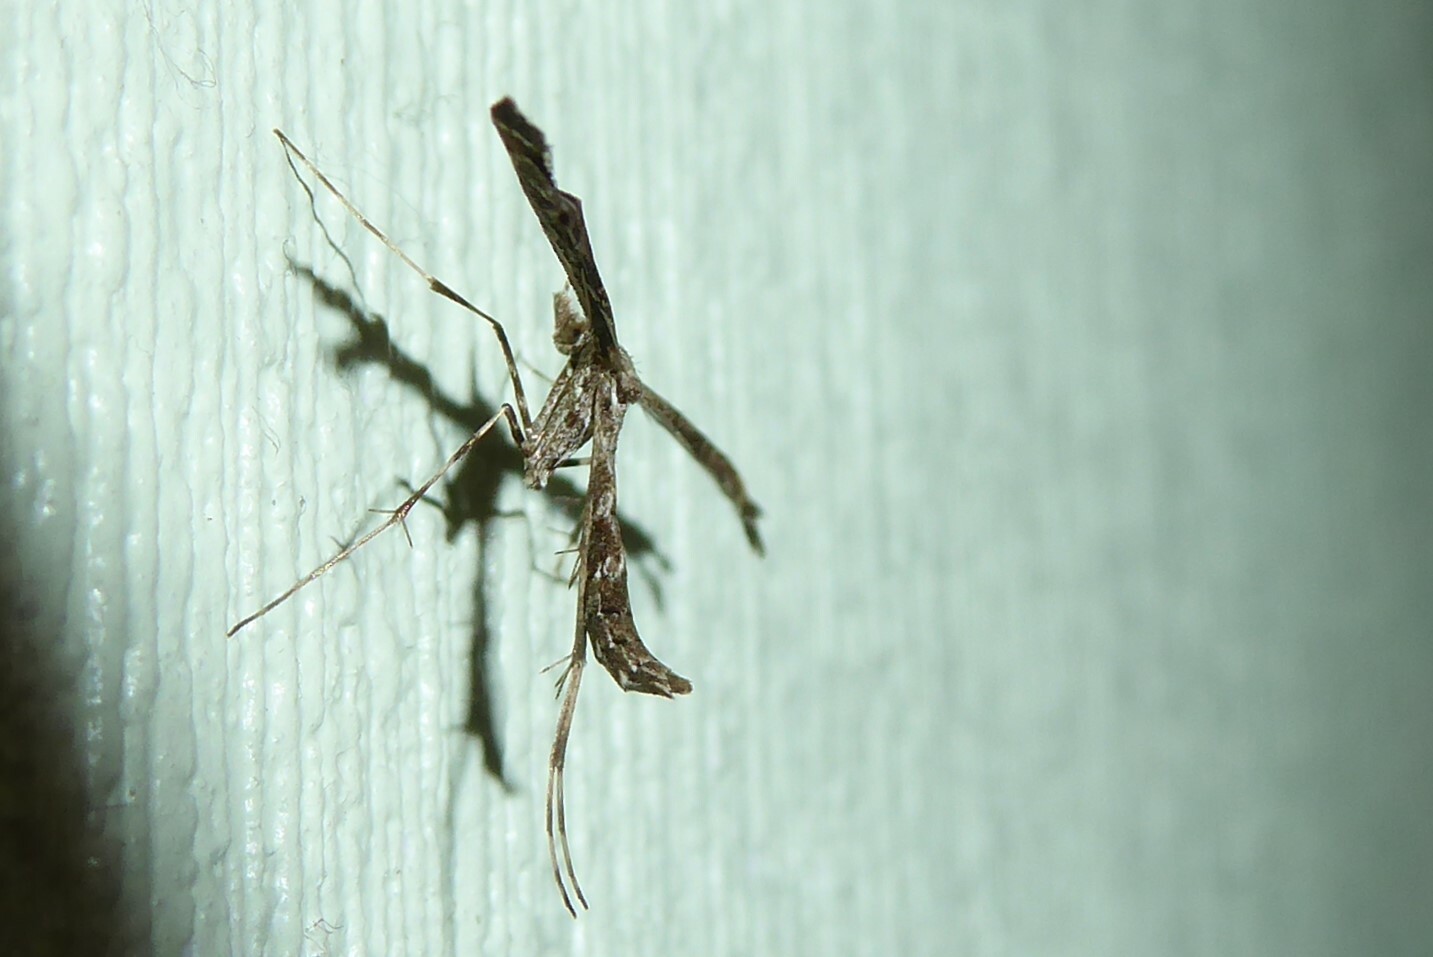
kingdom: Animalia
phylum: Arthropoda
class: Insecta
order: Lepidoptera
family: Pterophoridae
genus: Amblyptilia
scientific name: Amblyptilia repletalis
